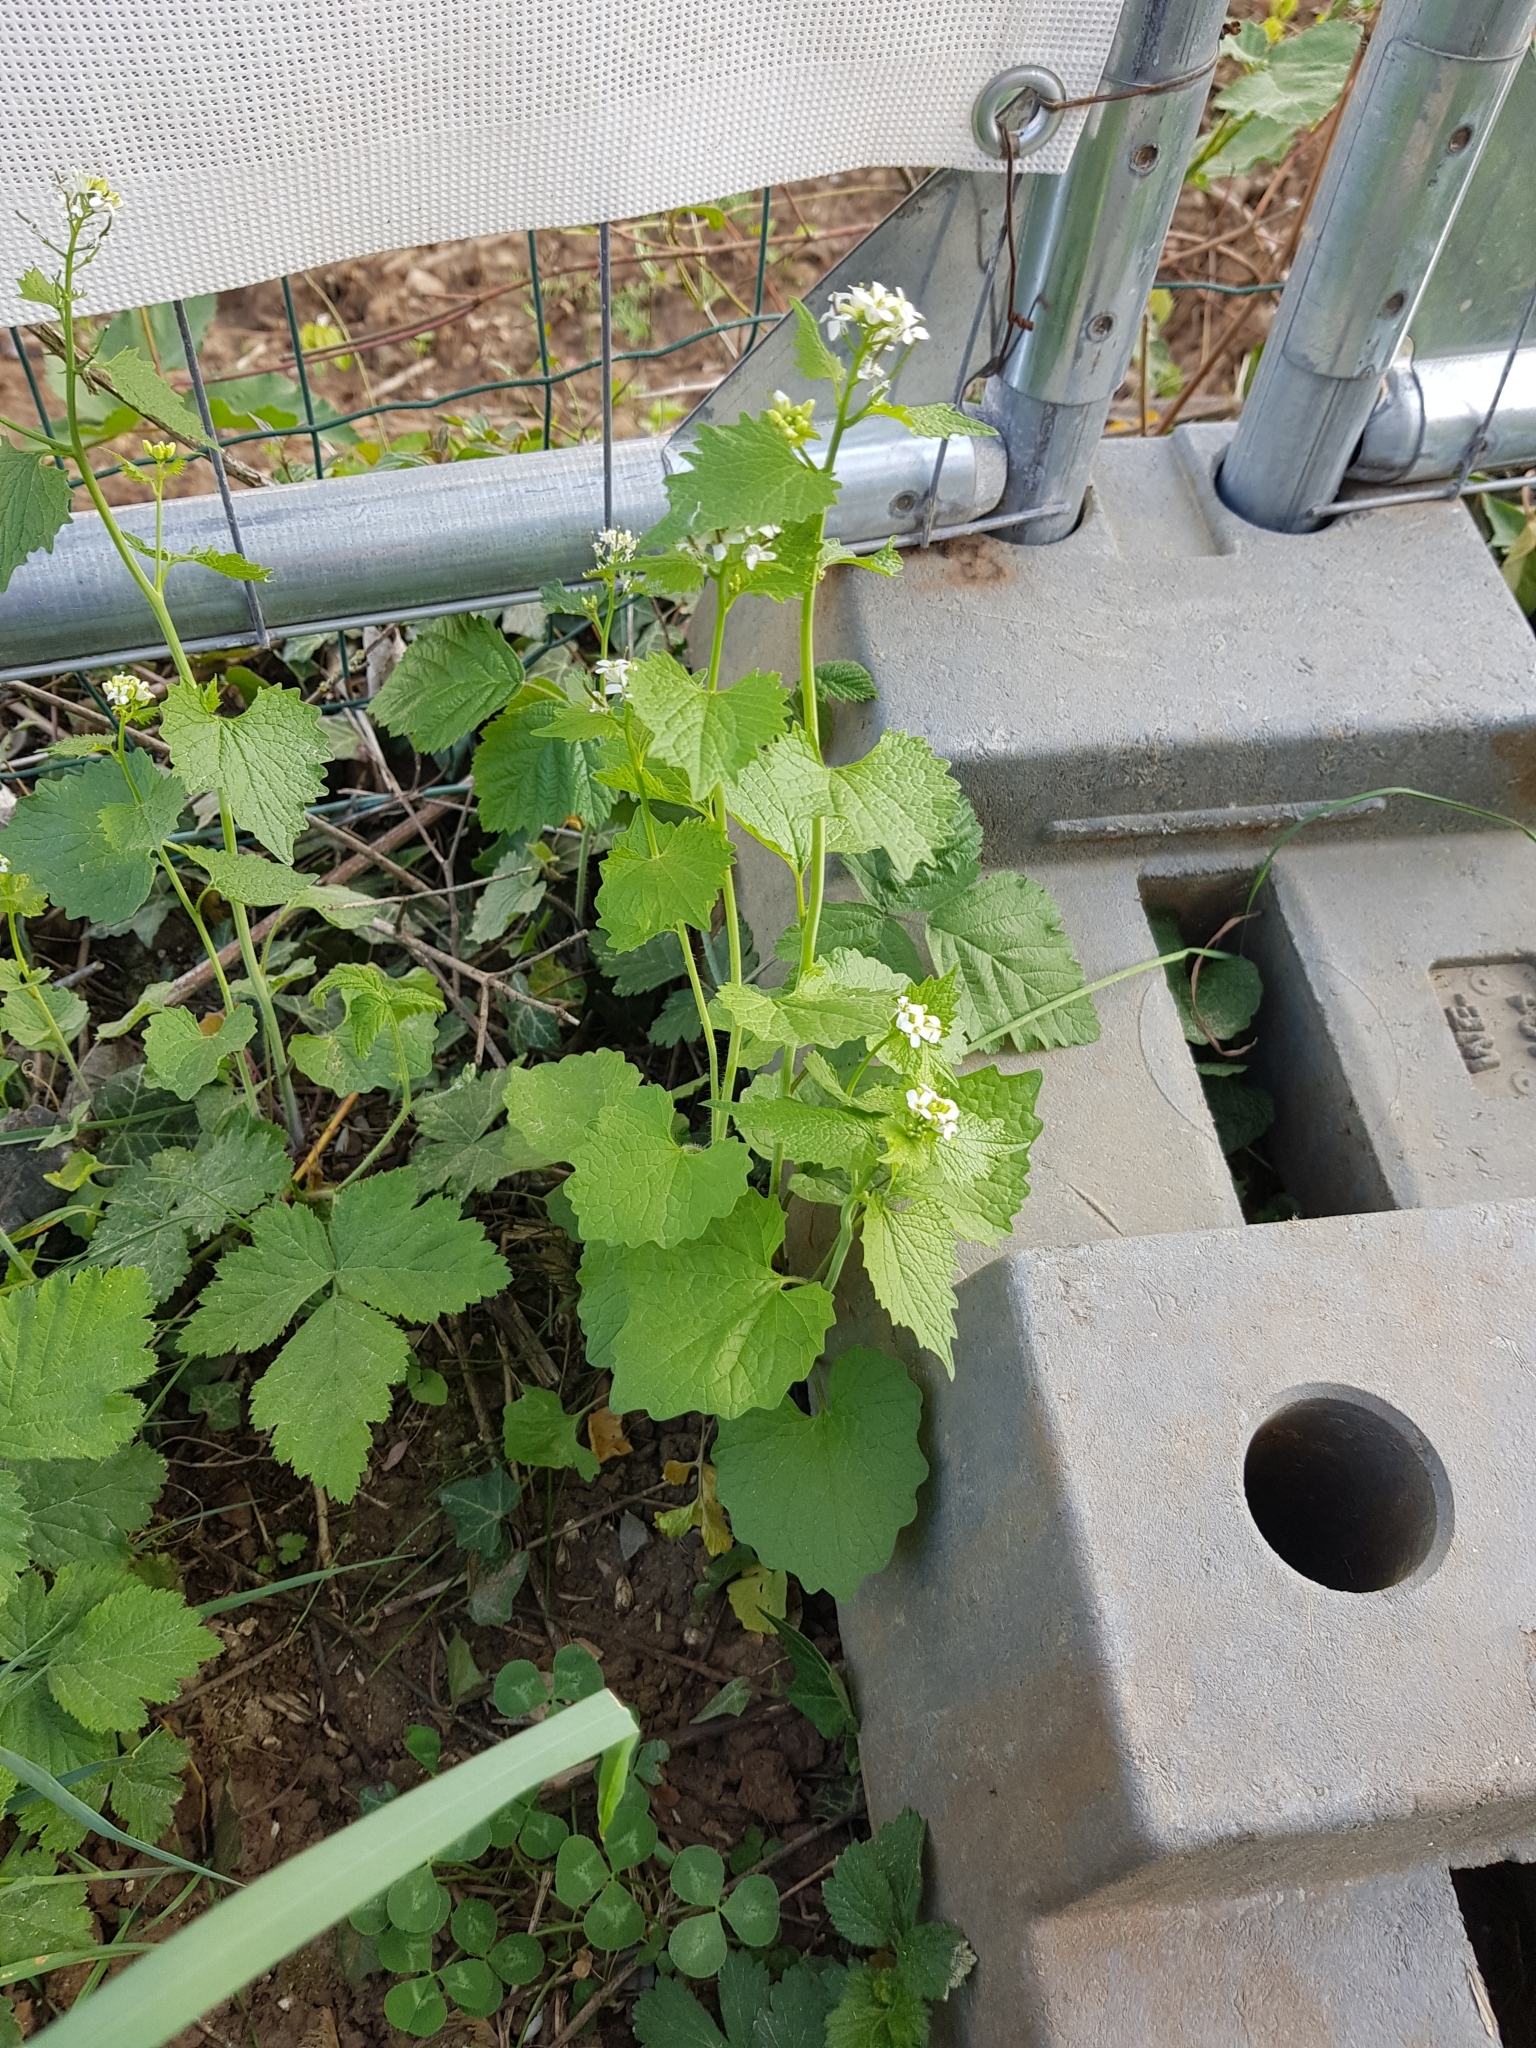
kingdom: Plantae
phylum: Tracheophyta
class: Magnoliopsida
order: Brassicales
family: Brassicaceae
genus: Alliaria
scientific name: Alliaria petiolata
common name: Garlic mustard
